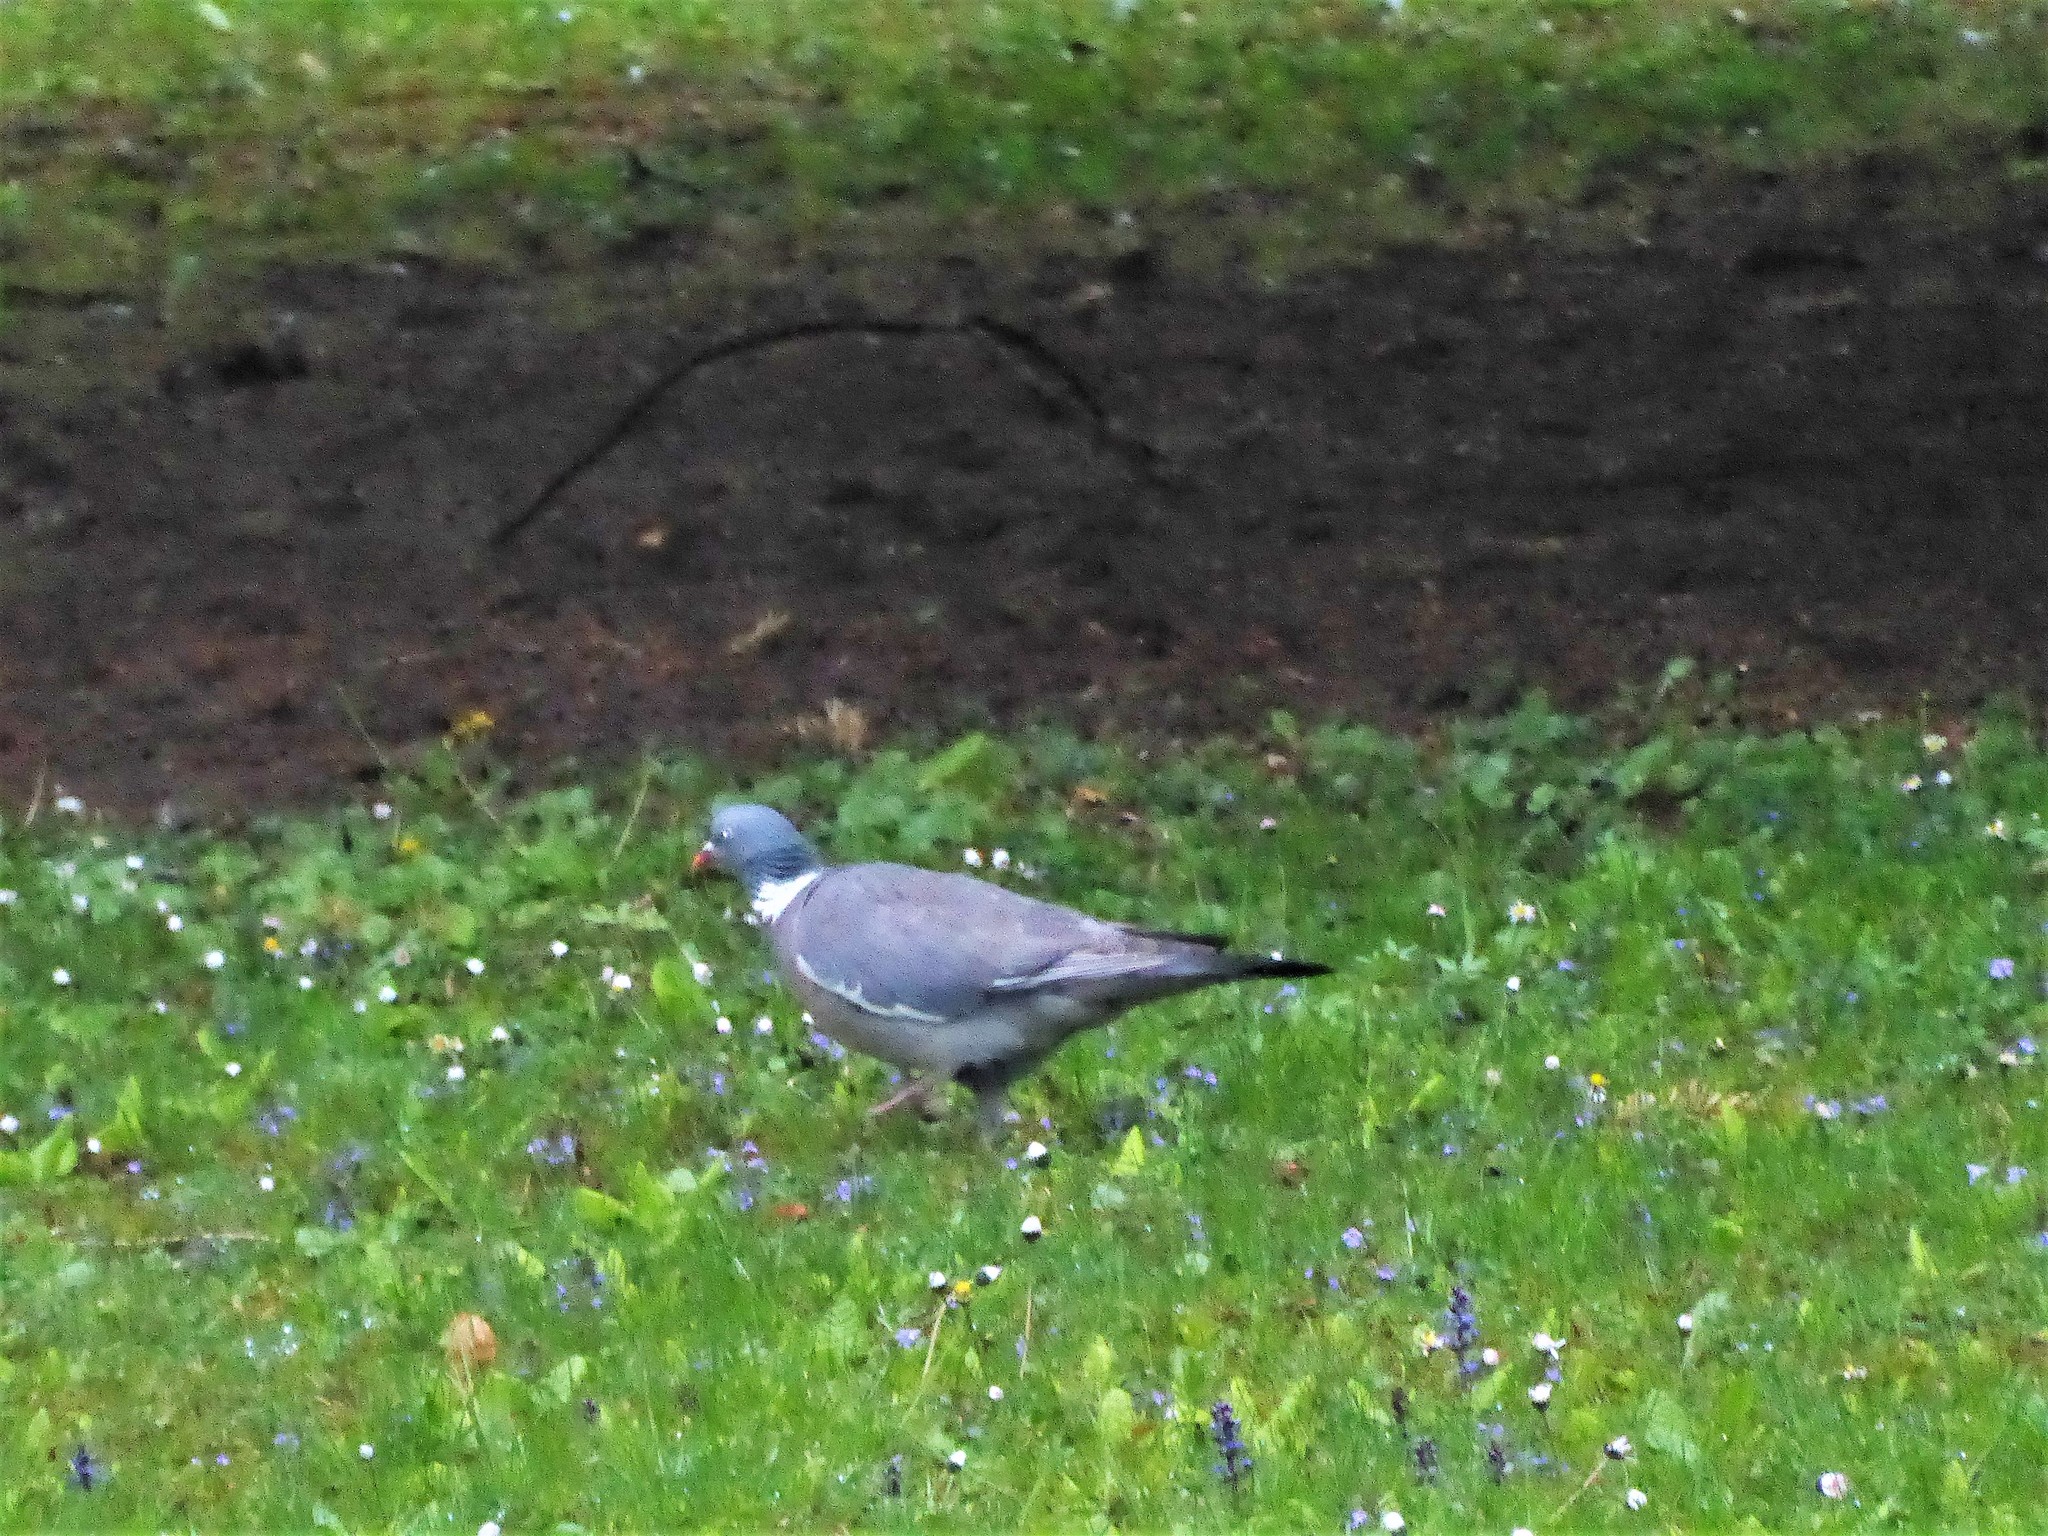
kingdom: Animalia
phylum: Chordata
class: Aves
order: Columbiformes
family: Columbidae
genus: Columba
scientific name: Columba palumbus
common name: Common wood pigeon
